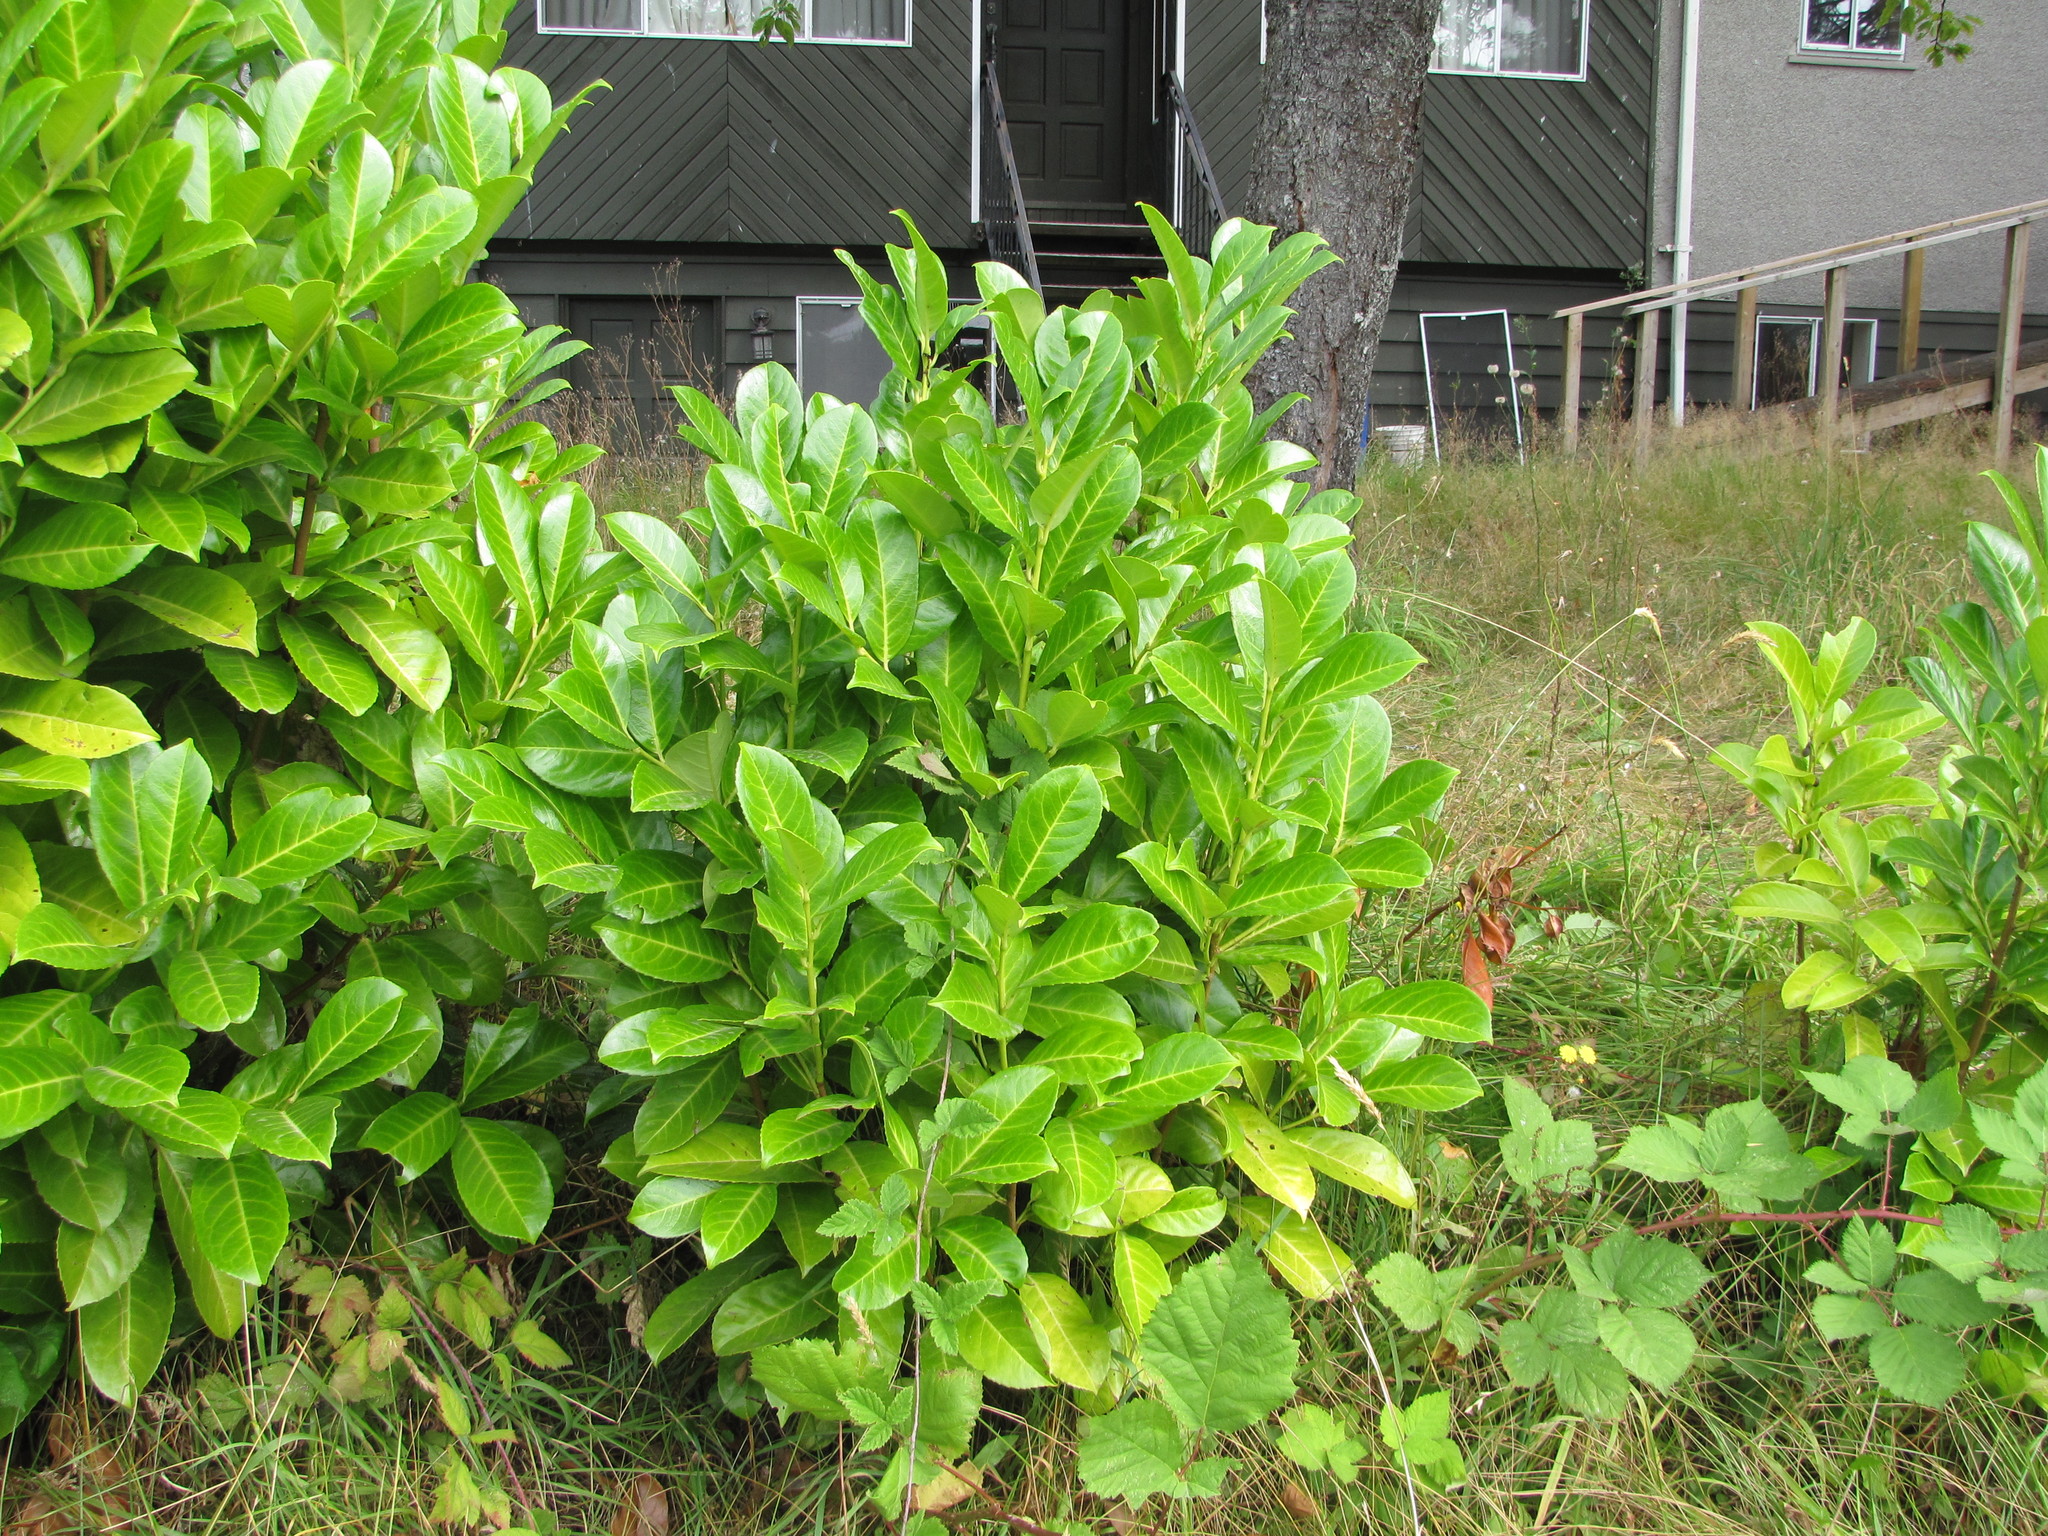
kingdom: Plantae
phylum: Tracheophyta
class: Magnoliopsida
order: Rosales
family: Rosaceae
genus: Prunus
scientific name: Prunus laurocerasus
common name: Cherry laurel
